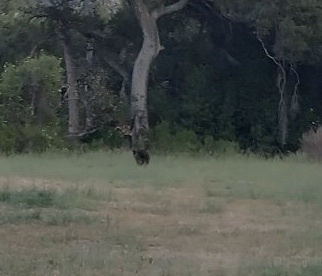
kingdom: Animalia
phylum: Chordata
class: Mammalia
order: Carnivora
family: Ursidae
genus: Ursus
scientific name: Ursus americanus
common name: American black bear
